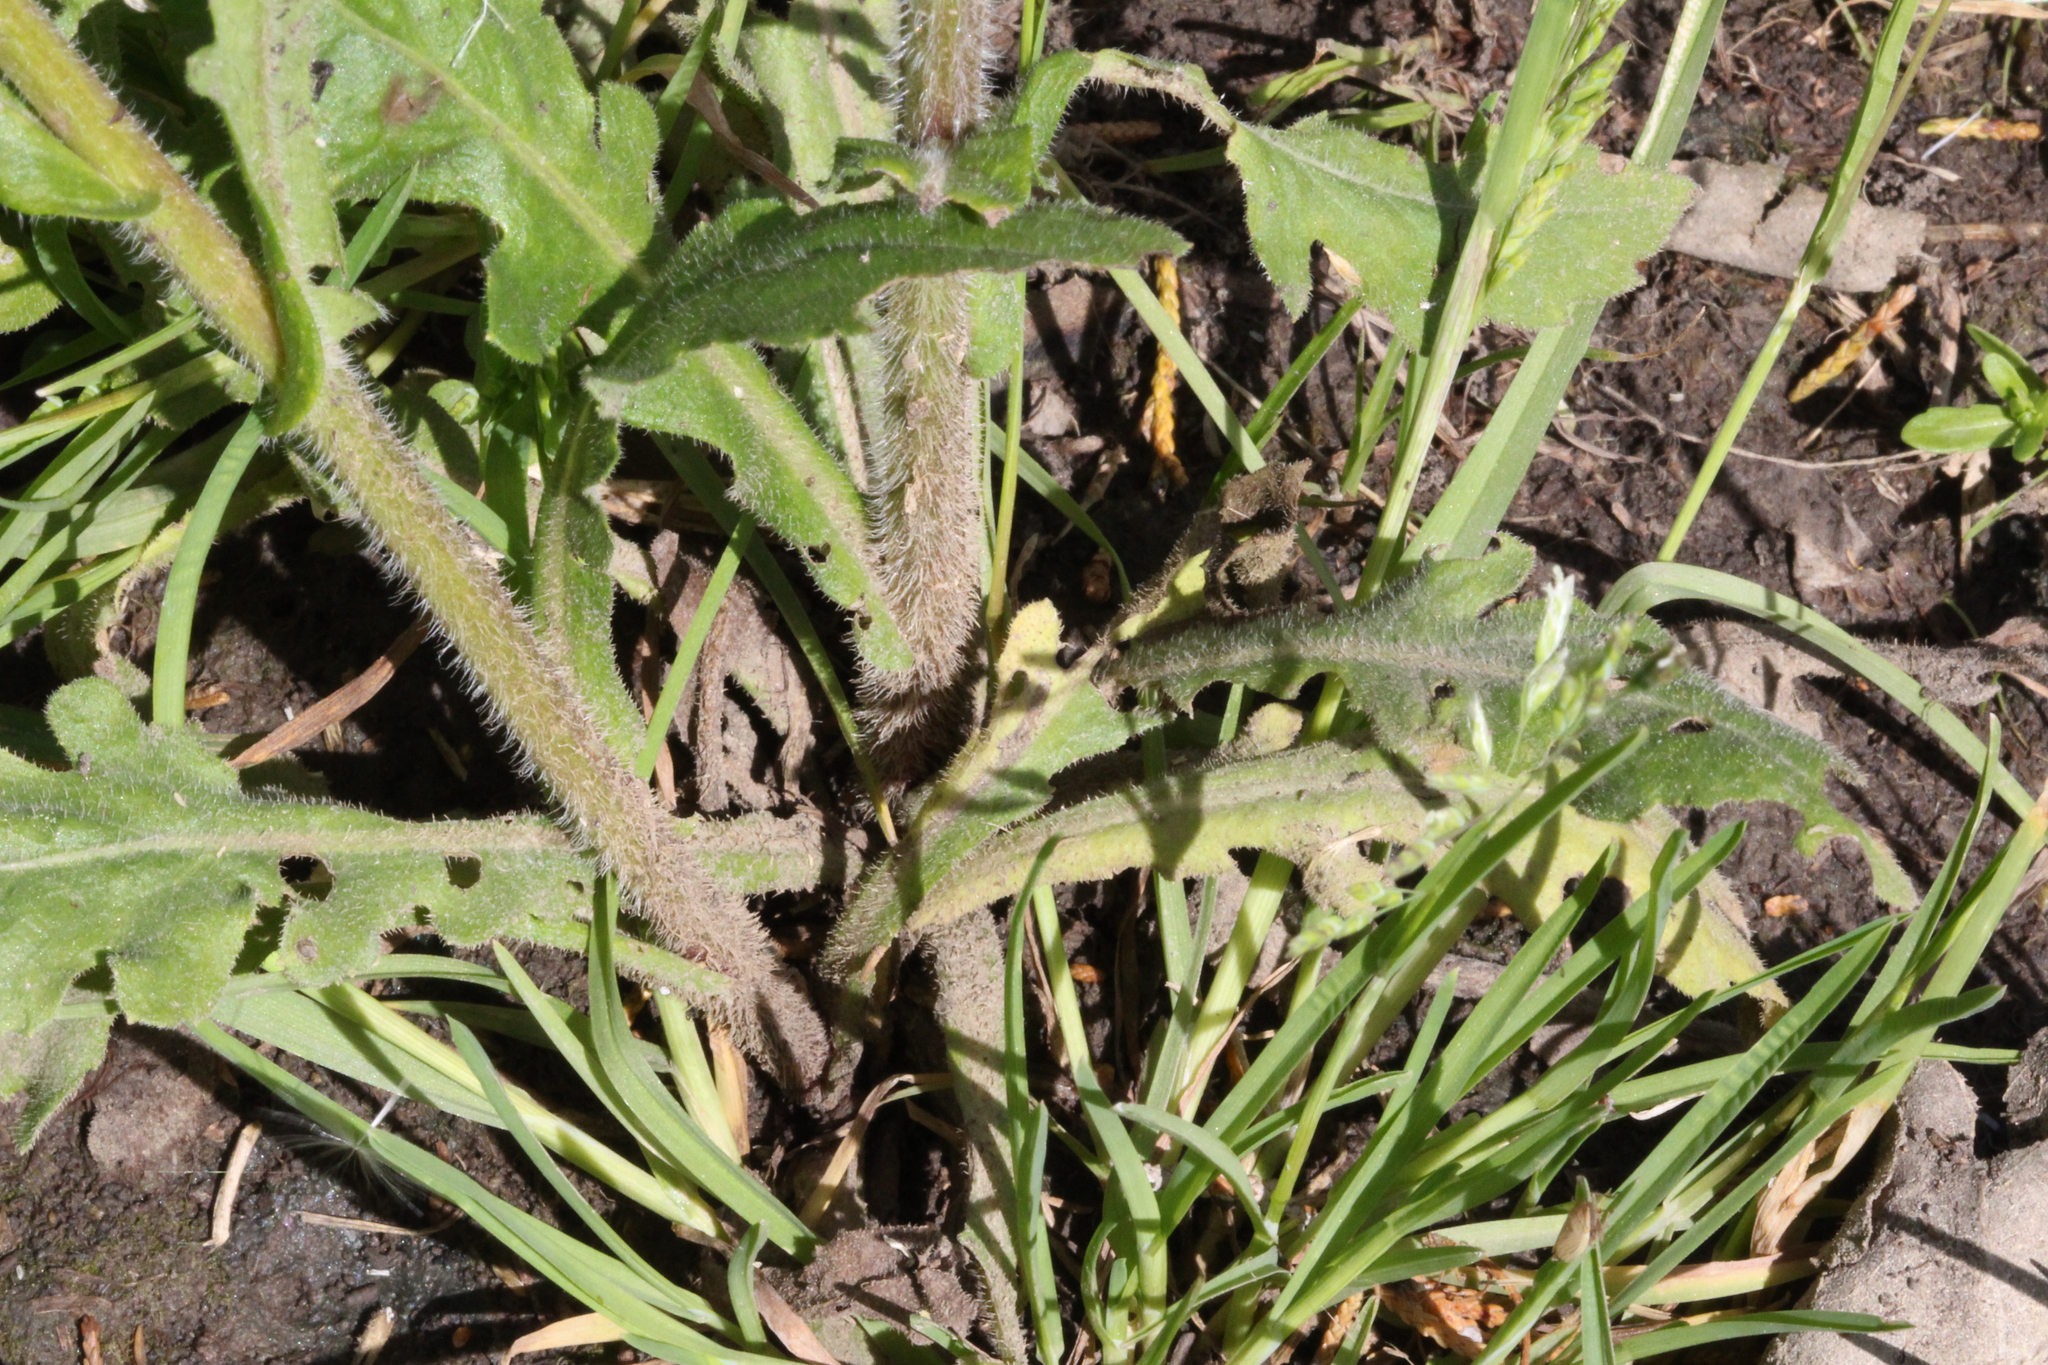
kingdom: Plantae
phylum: Tracheophyta
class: Magnoliopsida
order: Asterales
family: Asteraceae
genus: Erigeron
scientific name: Erigeron philadelphicus
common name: Robin's-plantain
